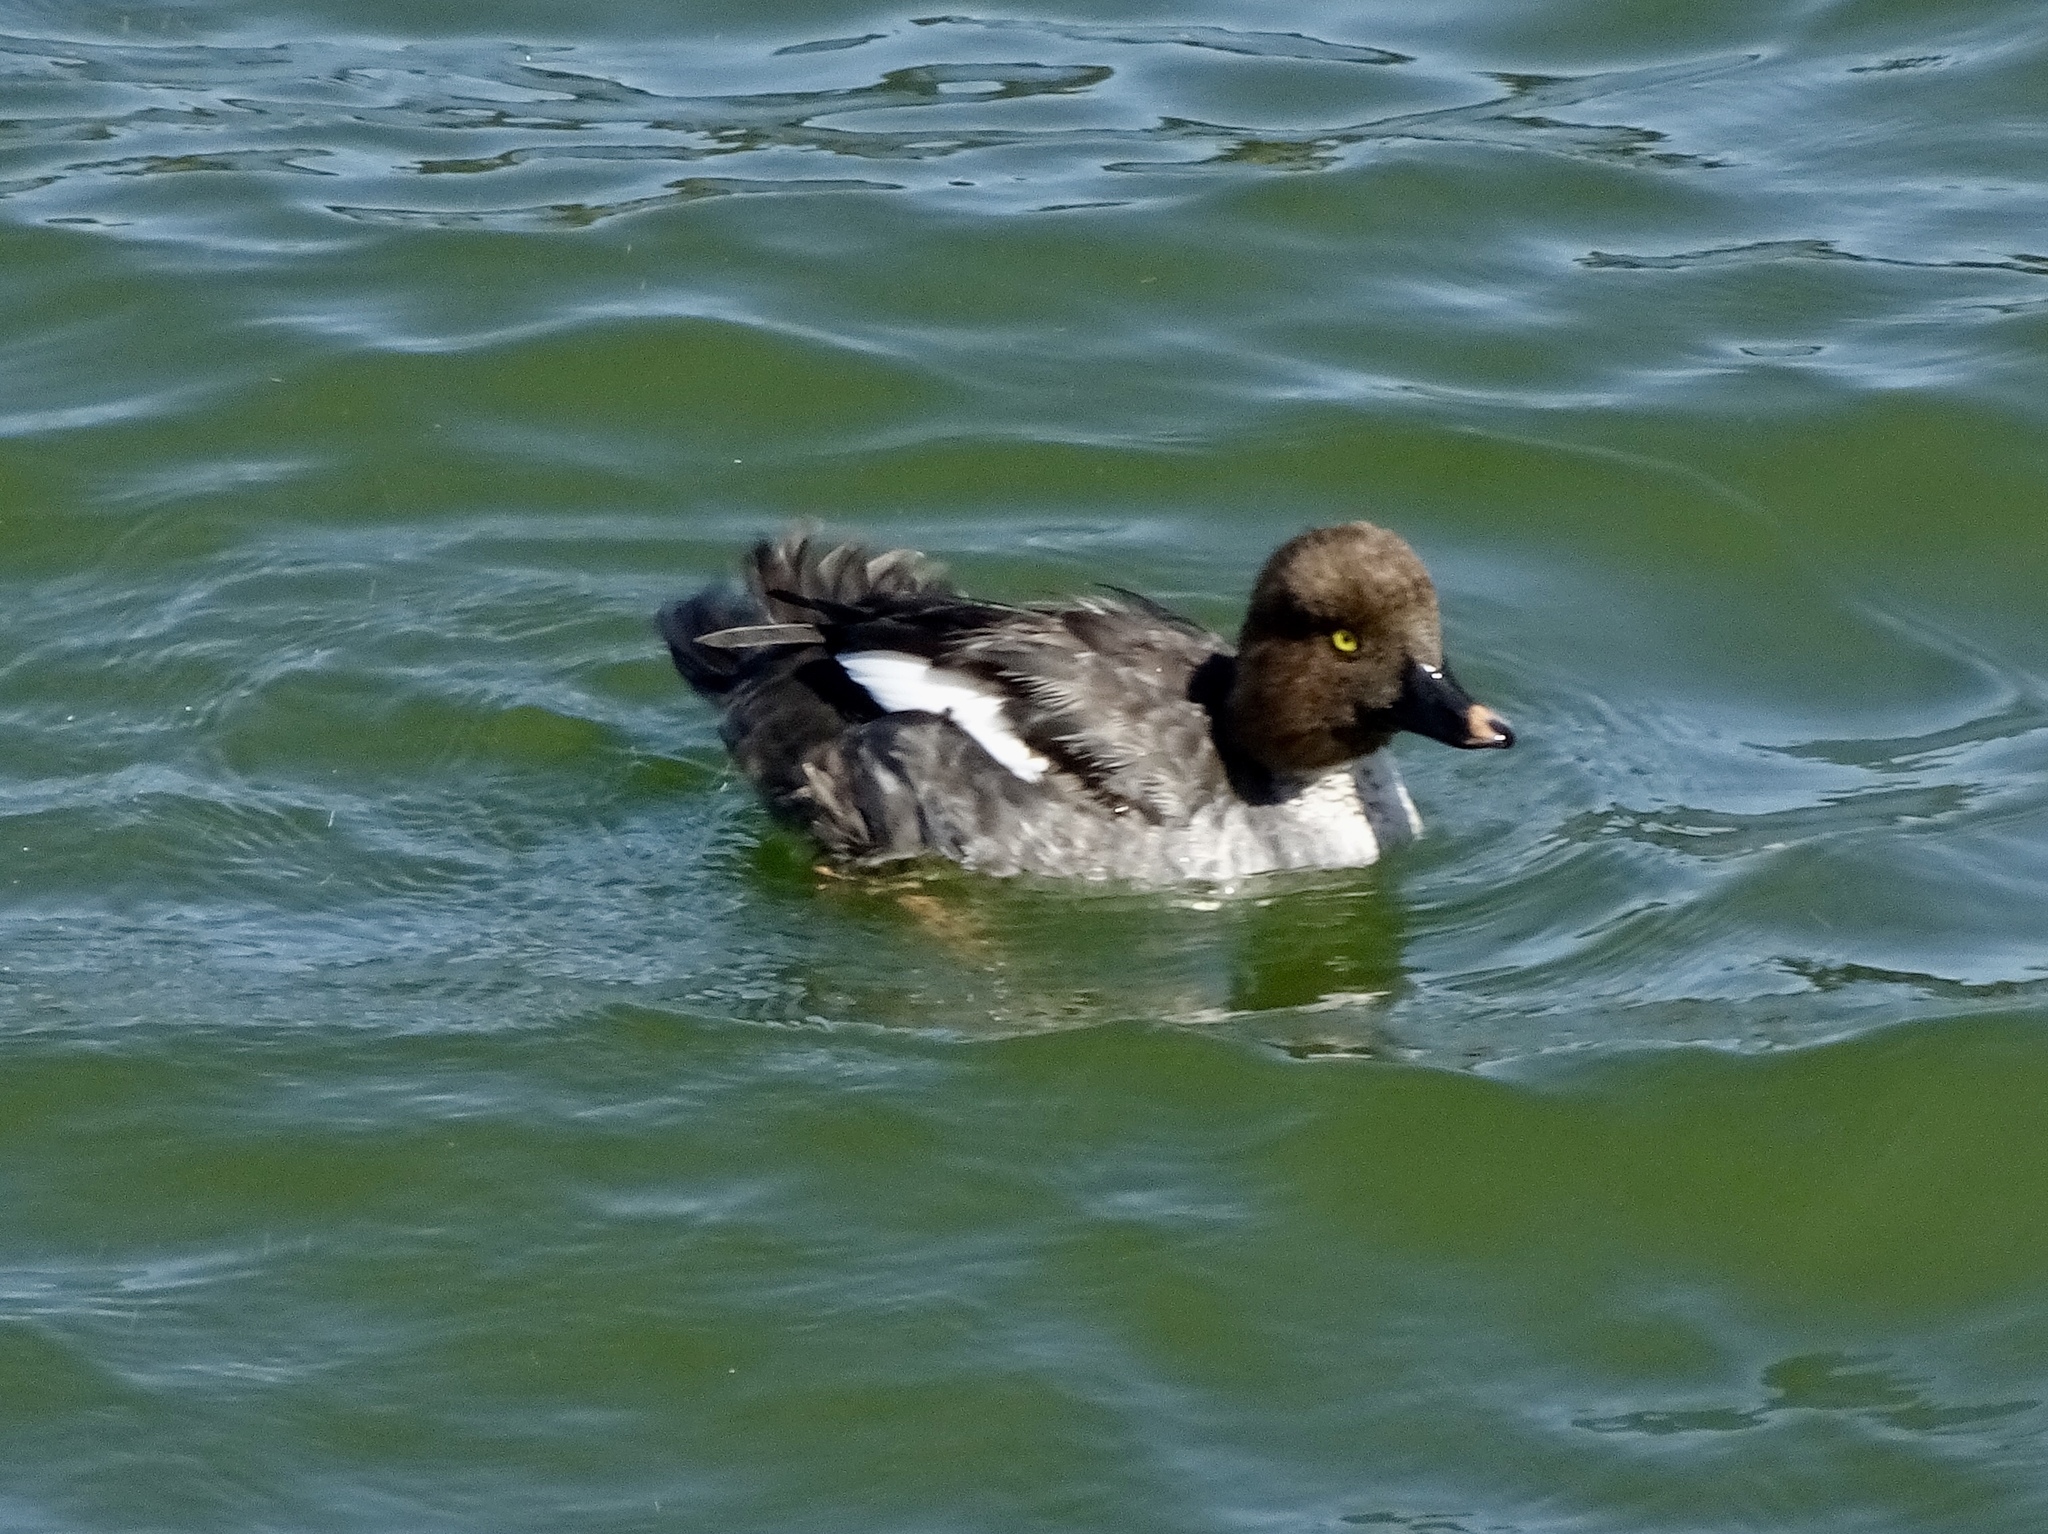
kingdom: Animalia
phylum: Chordata
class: Aves
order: Anseriformes
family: Anatidae
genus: Bucephala
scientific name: Bucephala clangula
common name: Common goldeneye
